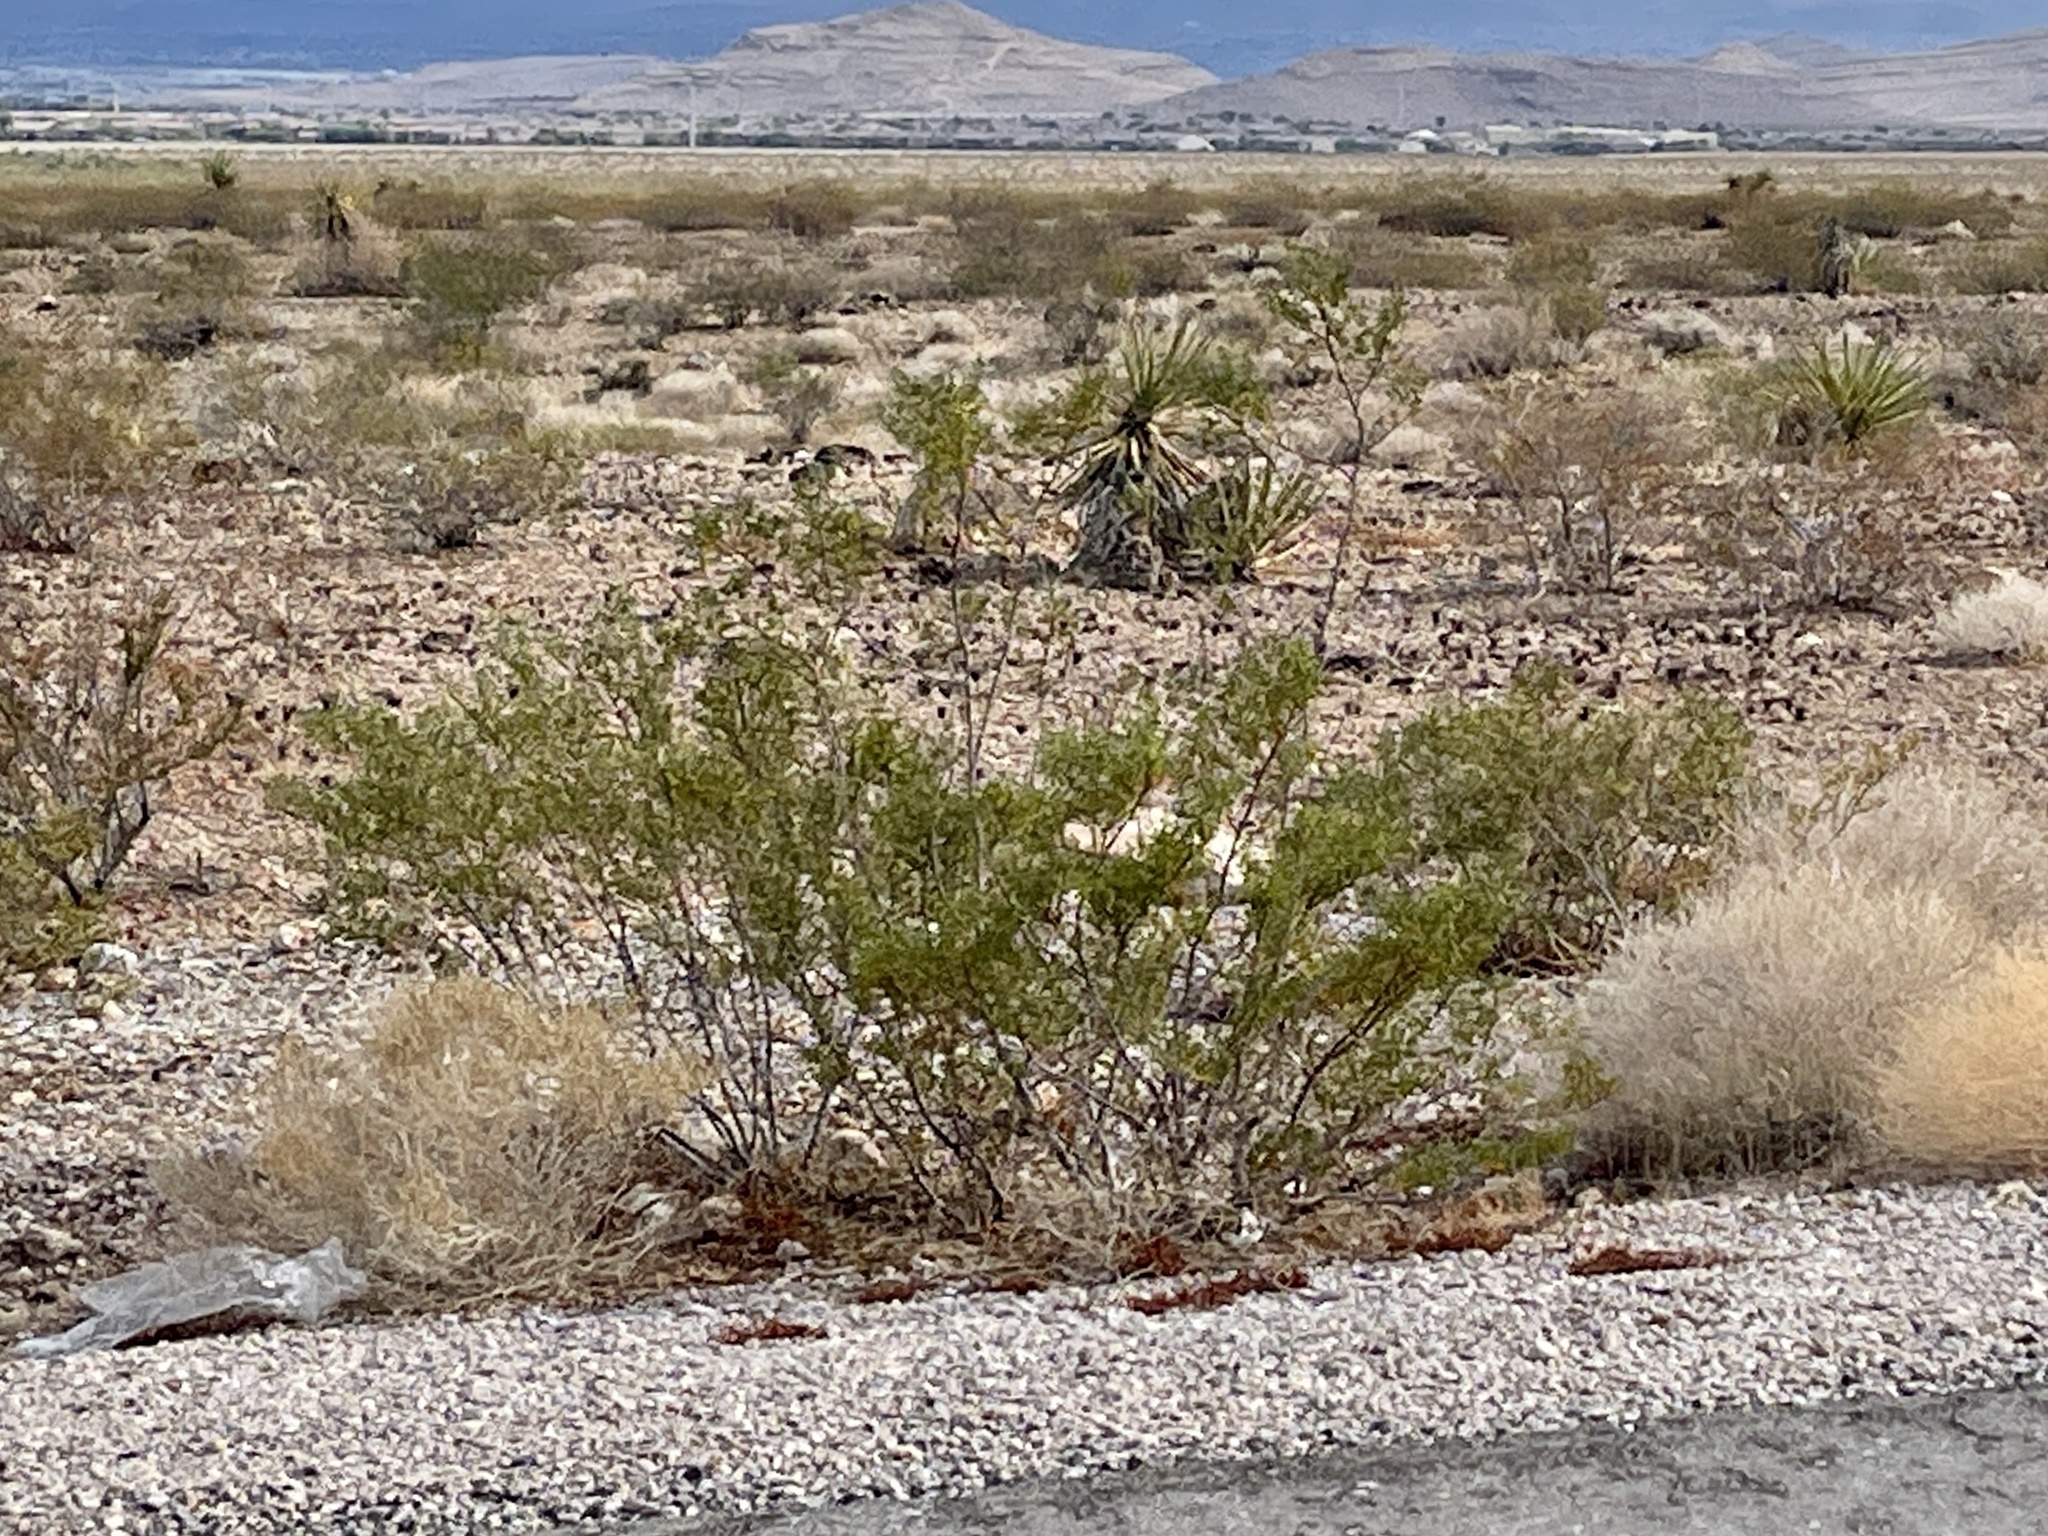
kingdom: Plantae
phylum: Tracheophyta
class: Magnoliopsida
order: Zygophyllales
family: Zygophyllaceae
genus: Larrea
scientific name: Larrea tridentata
